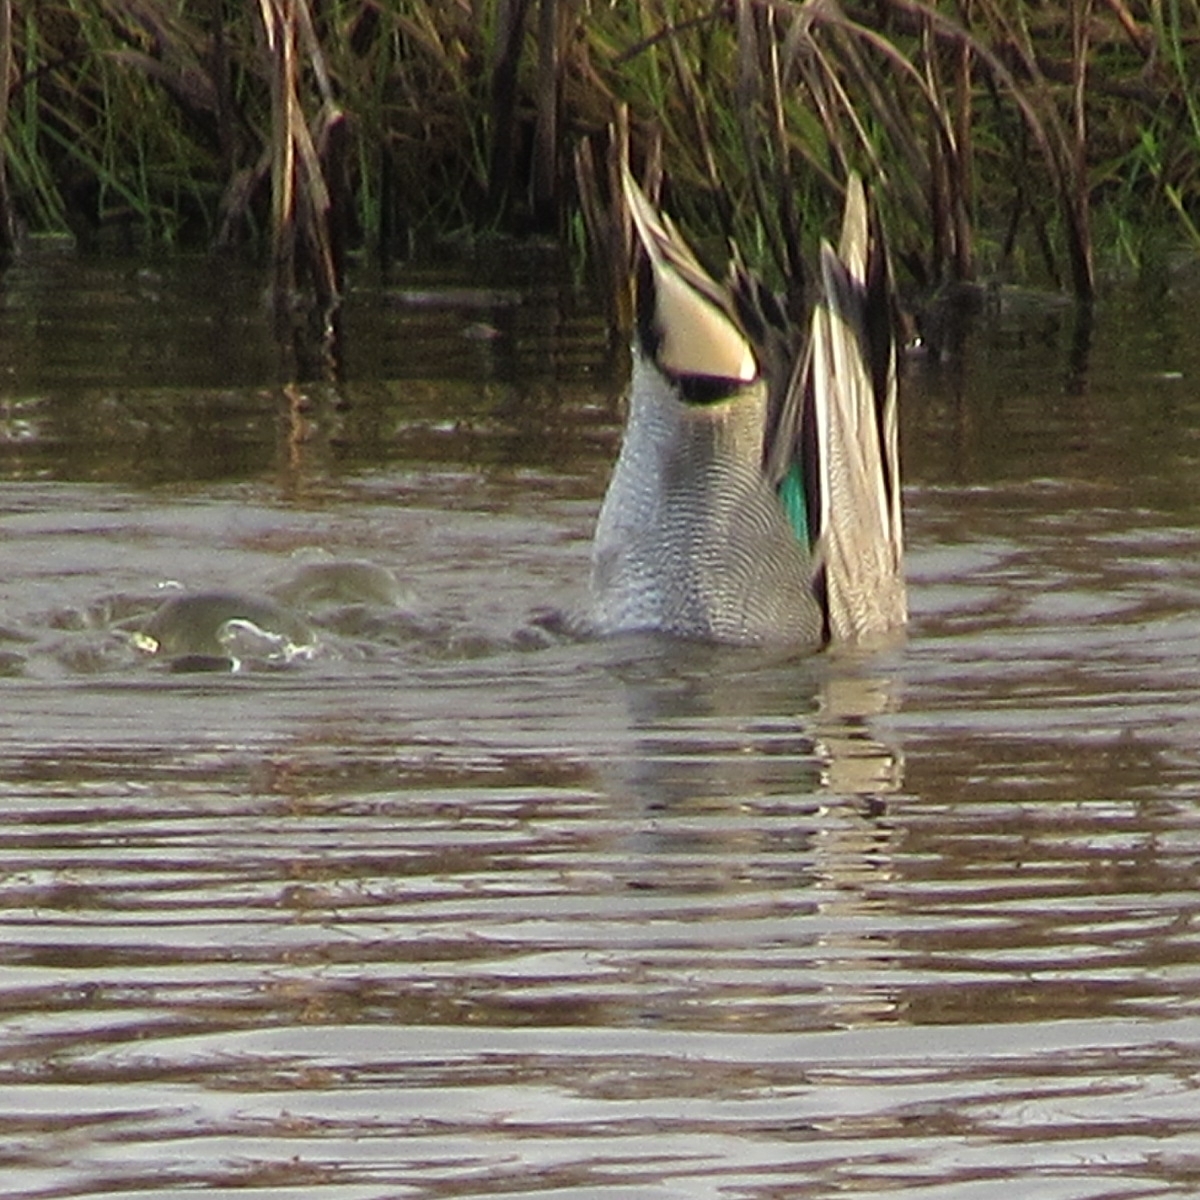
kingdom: Animalia
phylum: Chordata
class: Aves
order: Anseriformes
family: Anatidae
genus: Anas
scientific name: Anas crecca
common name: Eurasian teal
